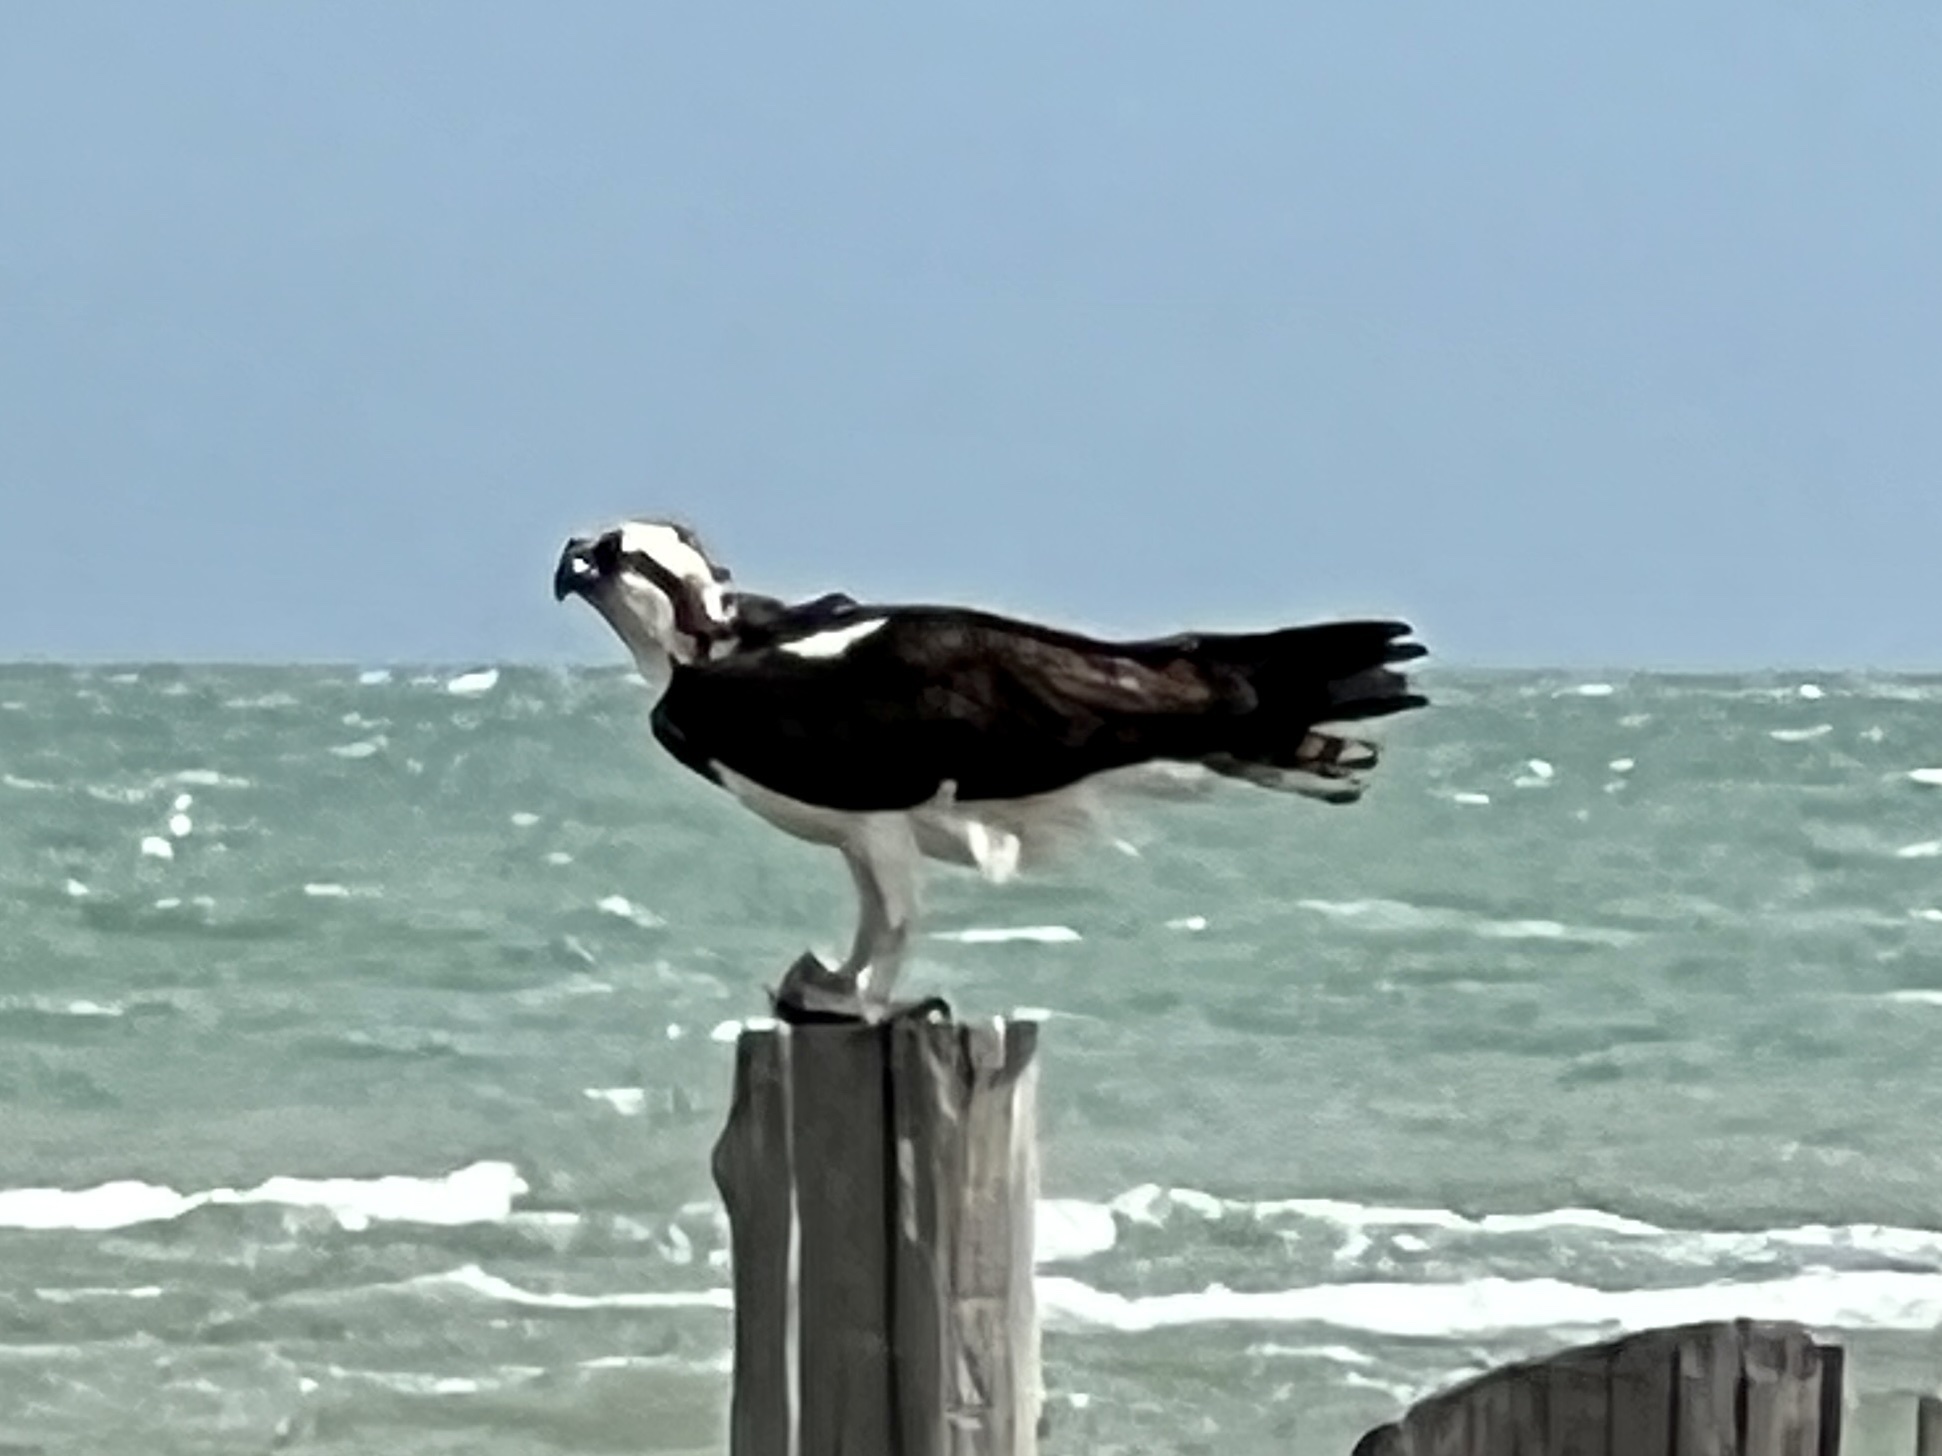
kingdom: Animalia
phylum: Chordata
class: Aves
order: Accipitriformes
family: Pandionidae
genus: Pandion
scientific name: Pandion haliaetus
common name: Osprey
